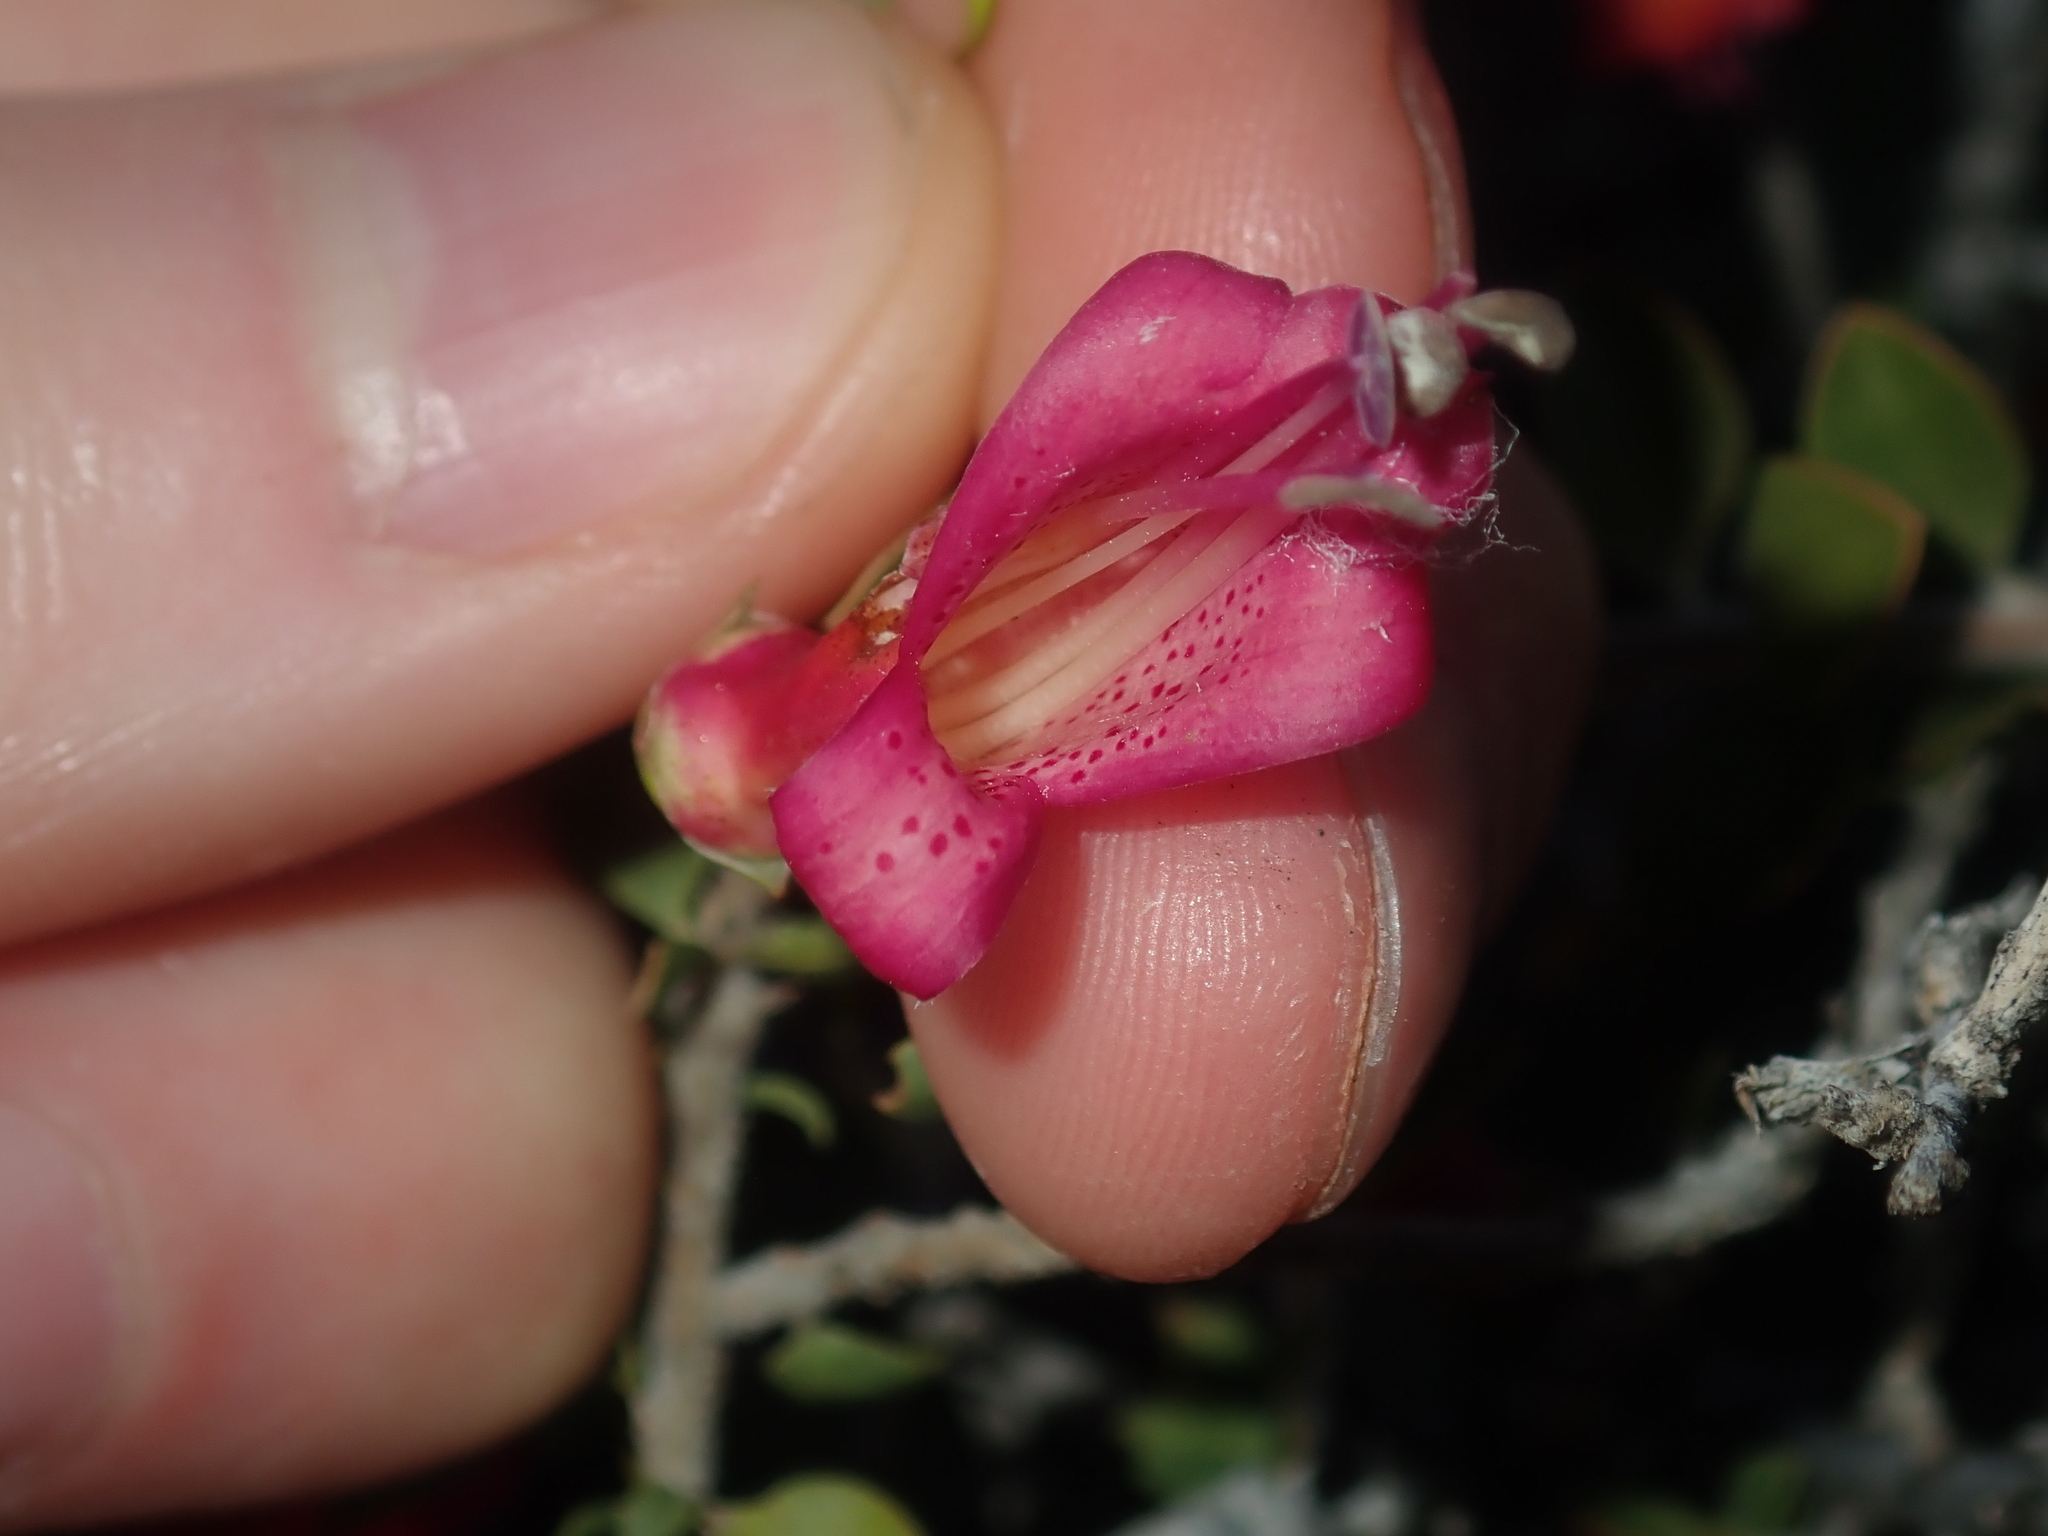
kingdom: Plantae
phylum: Tracheophyta
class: Magnoliopsida
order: Lamiales
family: Scrophulariaceae
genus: Eremophila
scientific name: Eremophila maculata
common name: Fuchsiabush
